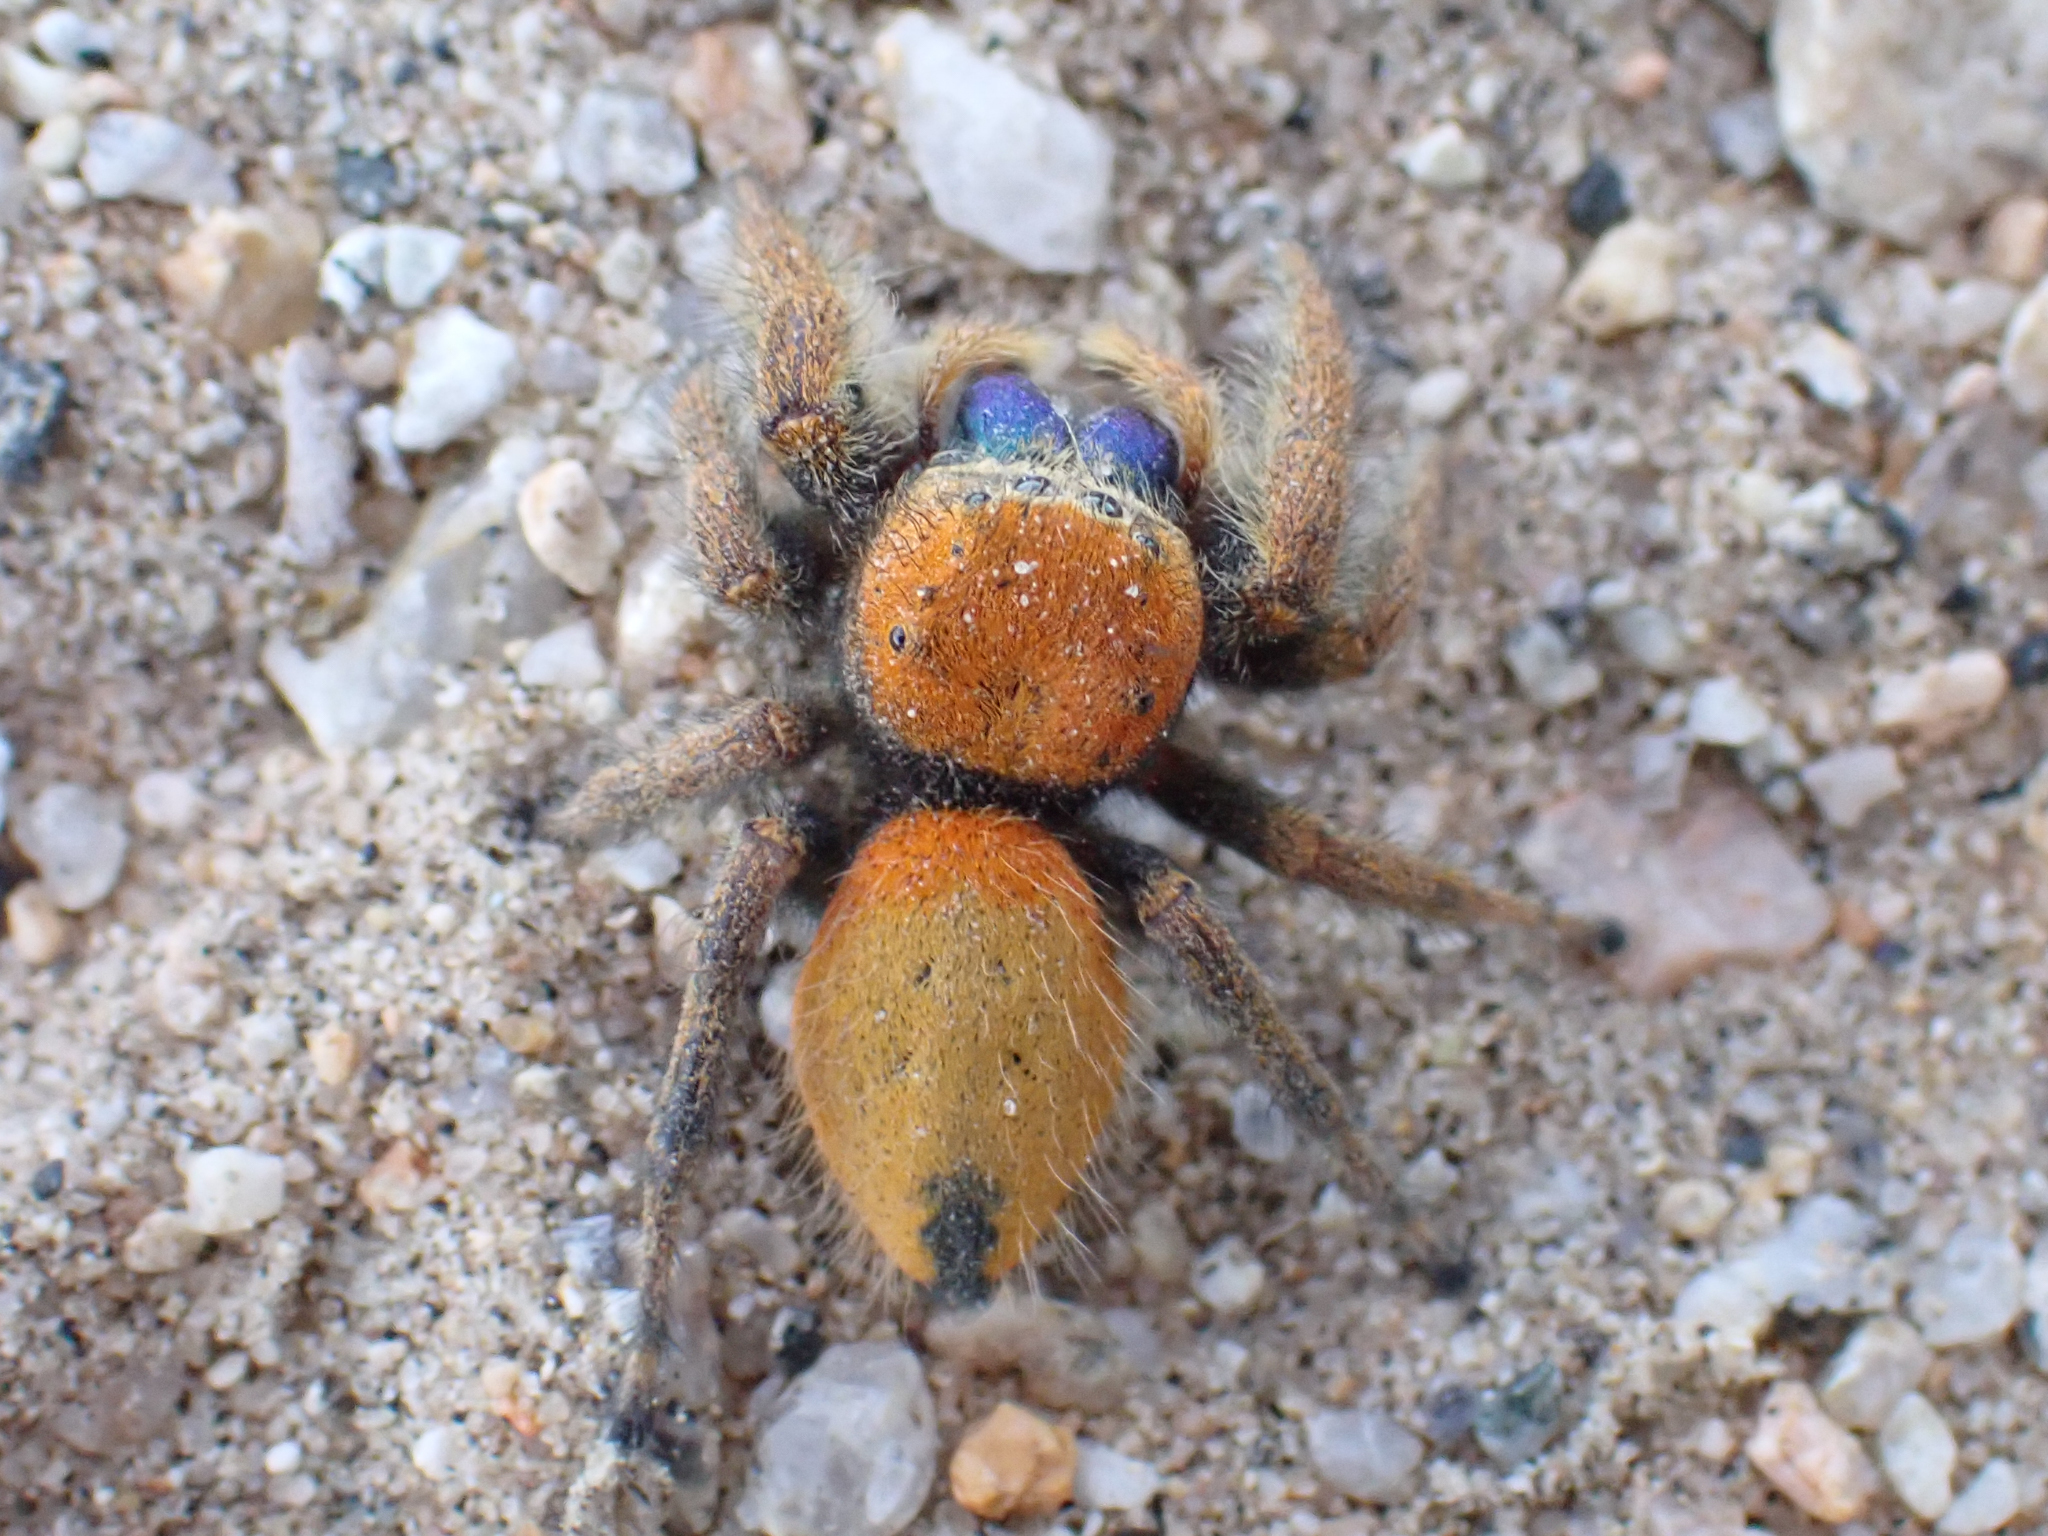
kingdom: Animalia
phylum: Arthropoda
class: Arachnida
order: Araneae
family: Salticidae
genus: Phidippus
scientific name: Phidippus nikites
